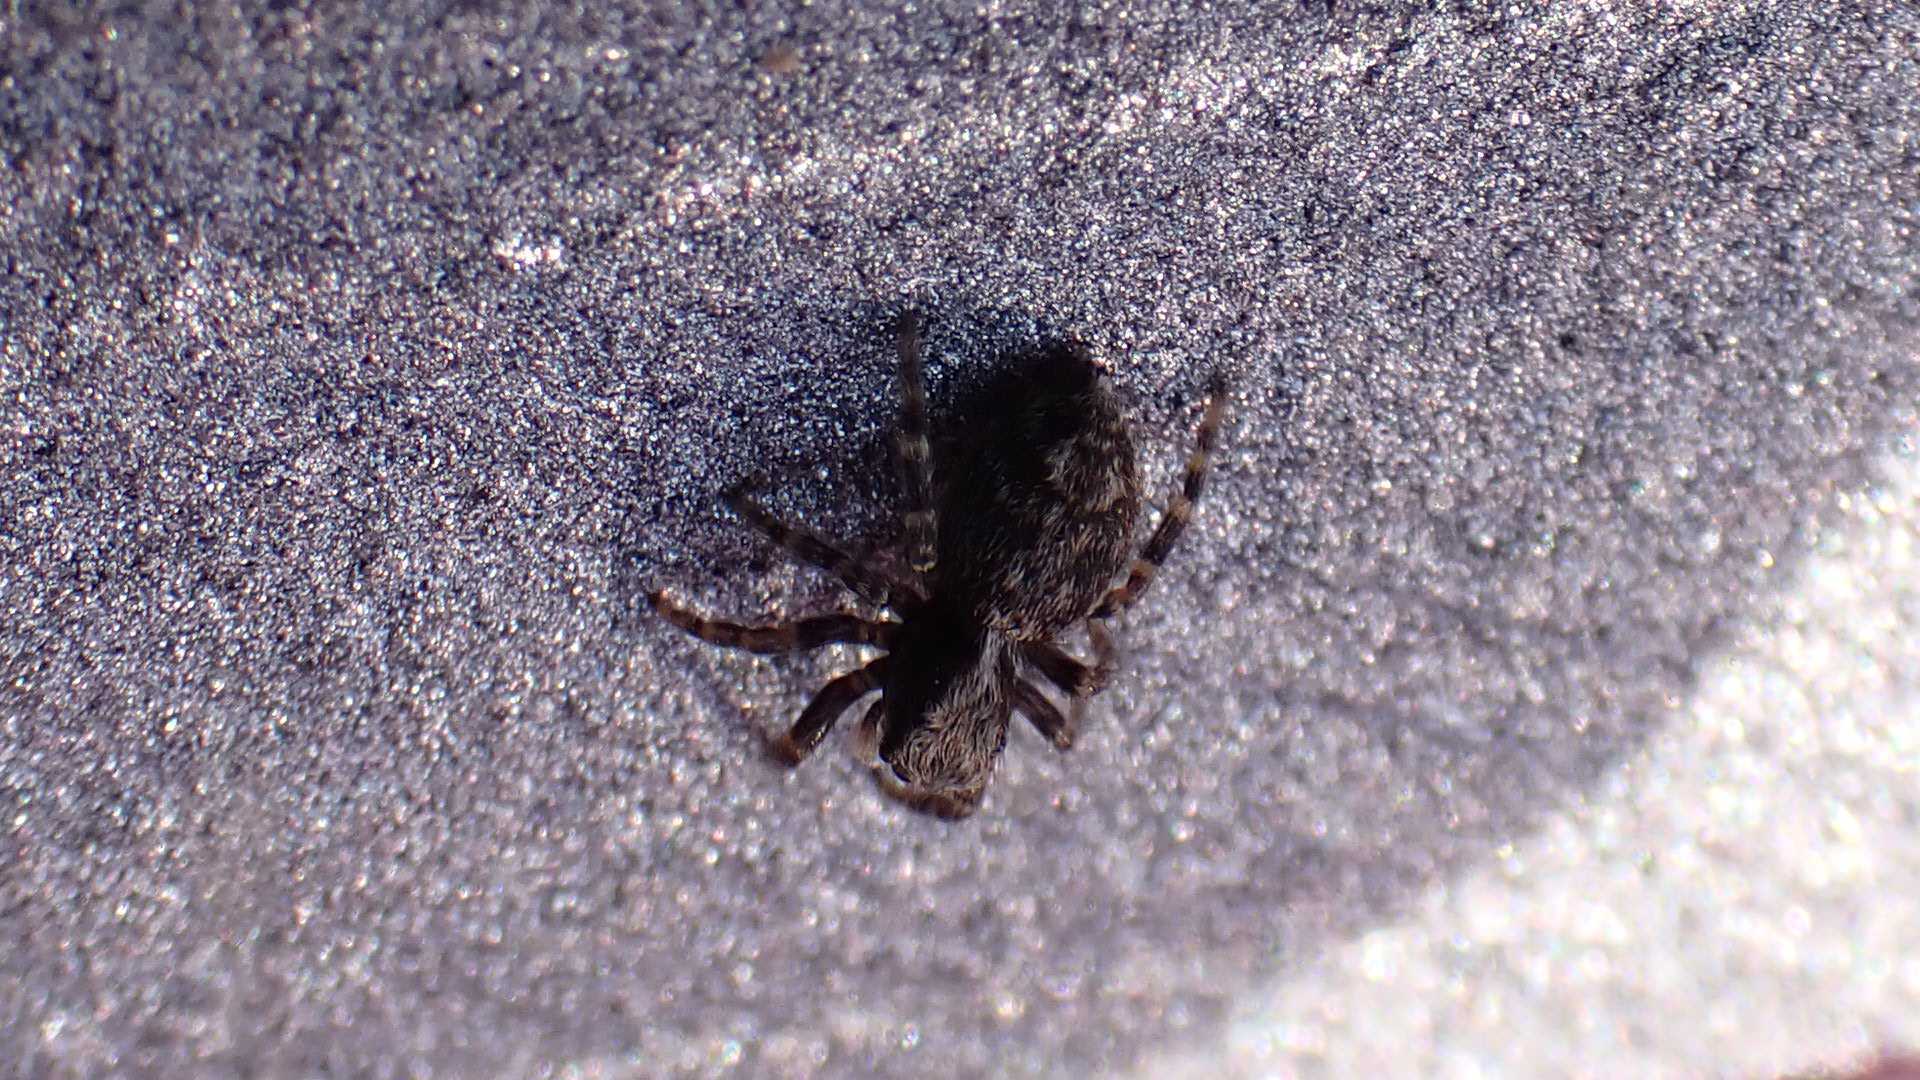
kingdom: Animalia
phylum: Arthropoda
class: Arachnida
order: Araneae
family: Salticidae
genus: Pseudeuophrys
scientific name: Pseudeuophrys lanigera
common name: Jumping spider
